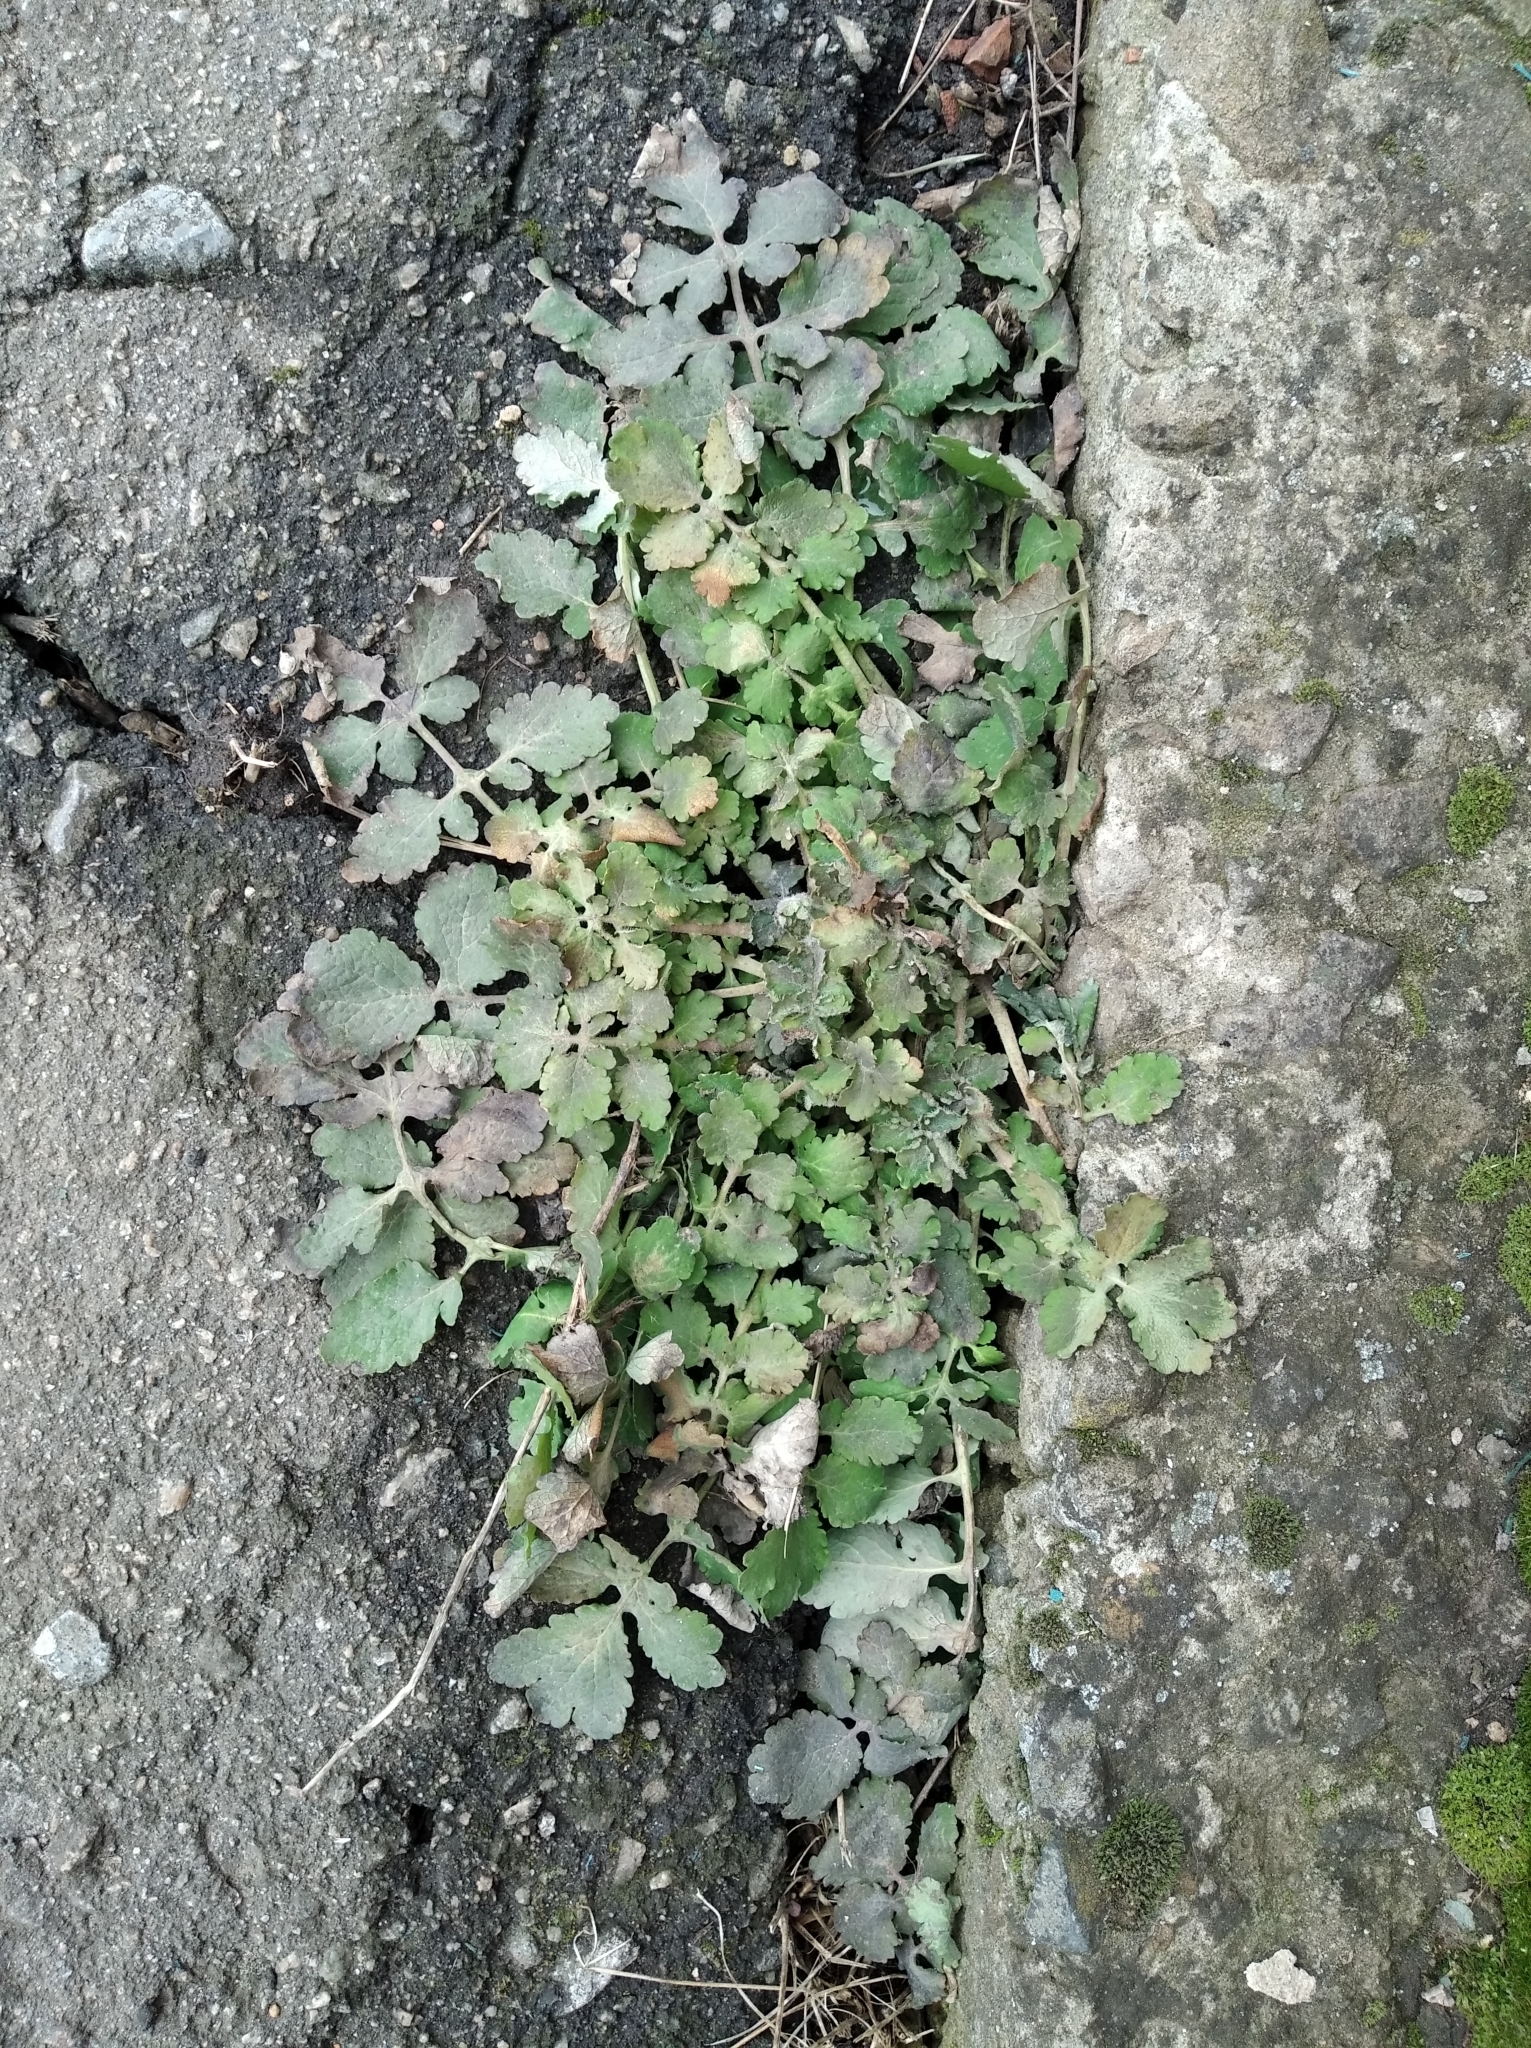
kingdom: Plantae
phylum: Tracheophyta
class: Magnoliopsida
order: Ranunculales
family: Papaveraceae
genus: Chelidonium
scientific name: Chelidonium majus
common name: Greater celandine
